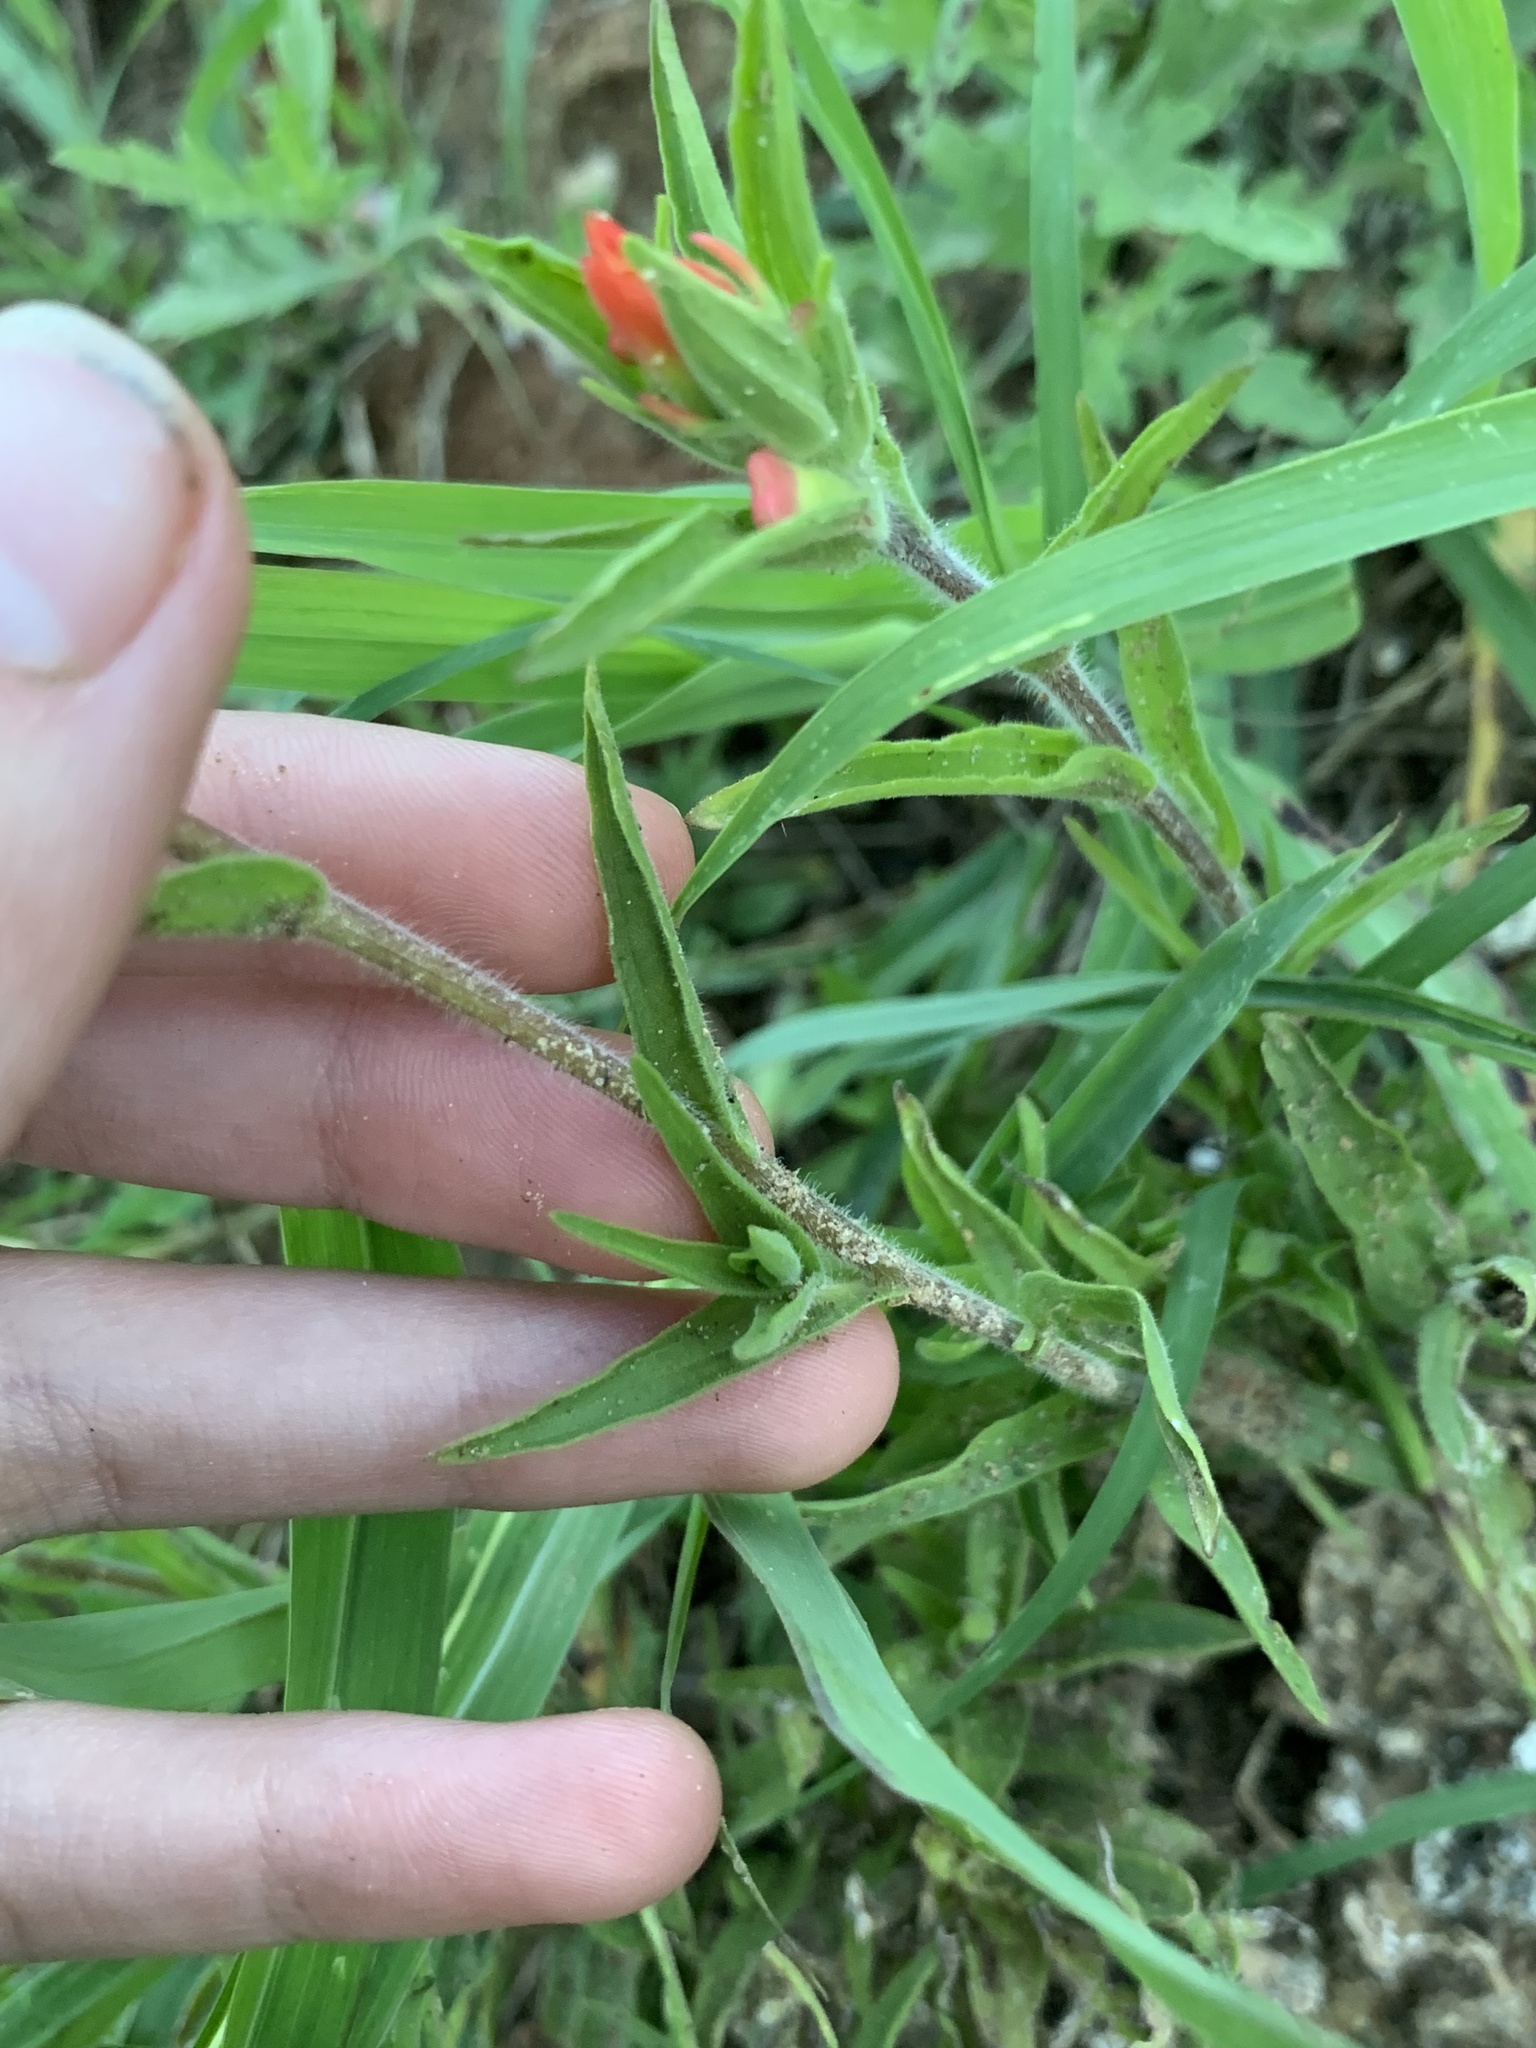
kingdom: Plantae
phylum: Tracheophyta
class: Magnoliopsida
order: Lamiales
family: Orobanchaceae
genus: Castilleja
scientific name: Castilleja indivisa
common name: Texas paintbrush
